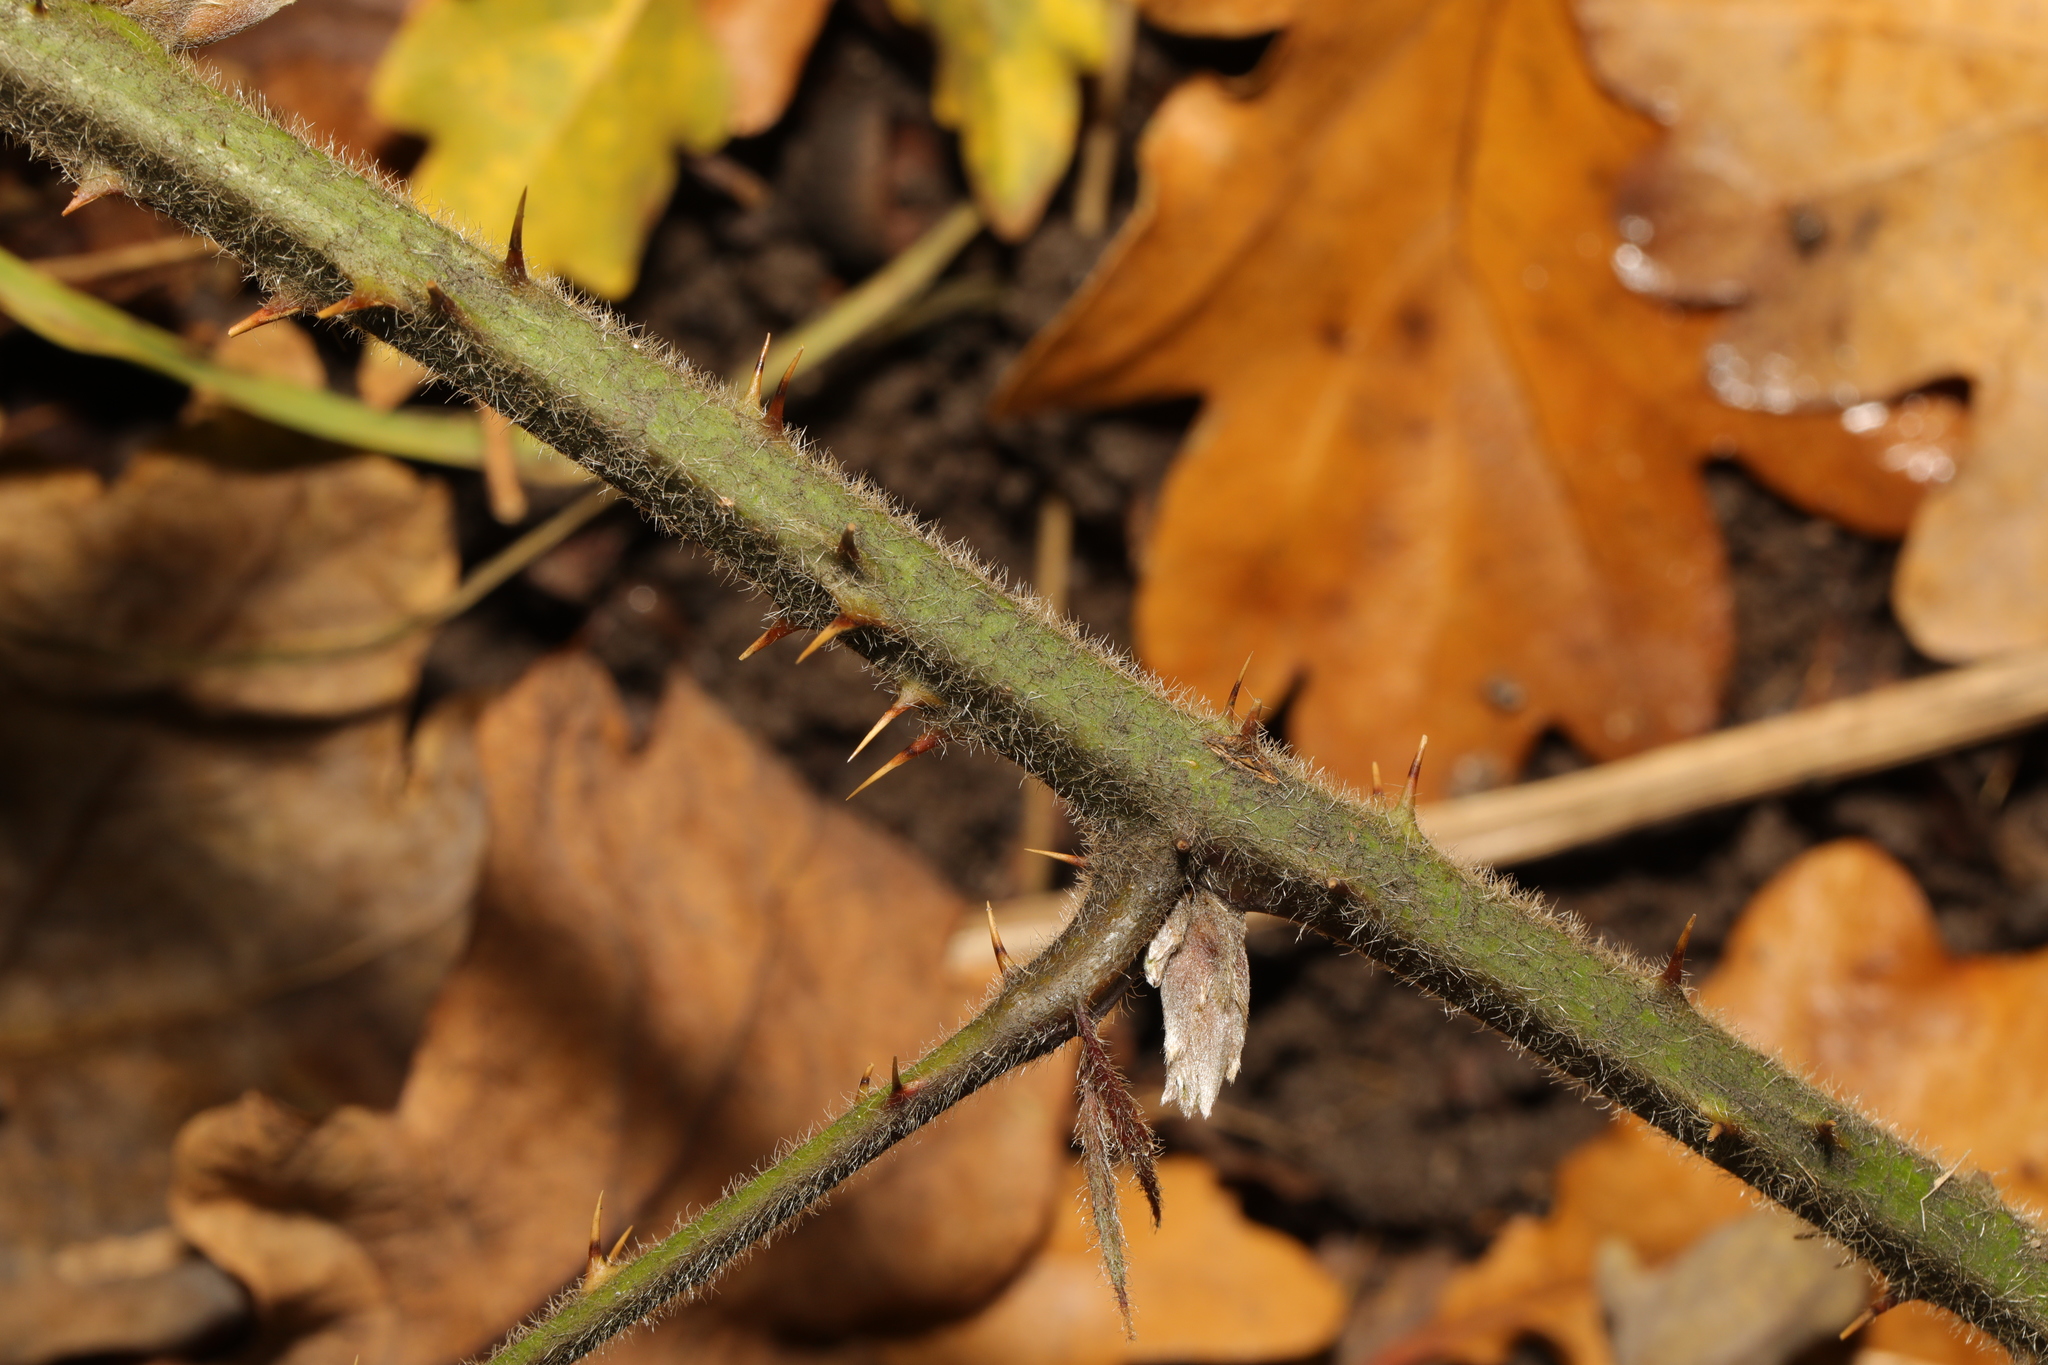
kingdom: Plantae
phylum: Tracheophyta
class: Magnoliopsida
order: Rosales
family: Rosaceae
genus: Rubus
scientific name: Rubus vestitus
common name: European blackberry
